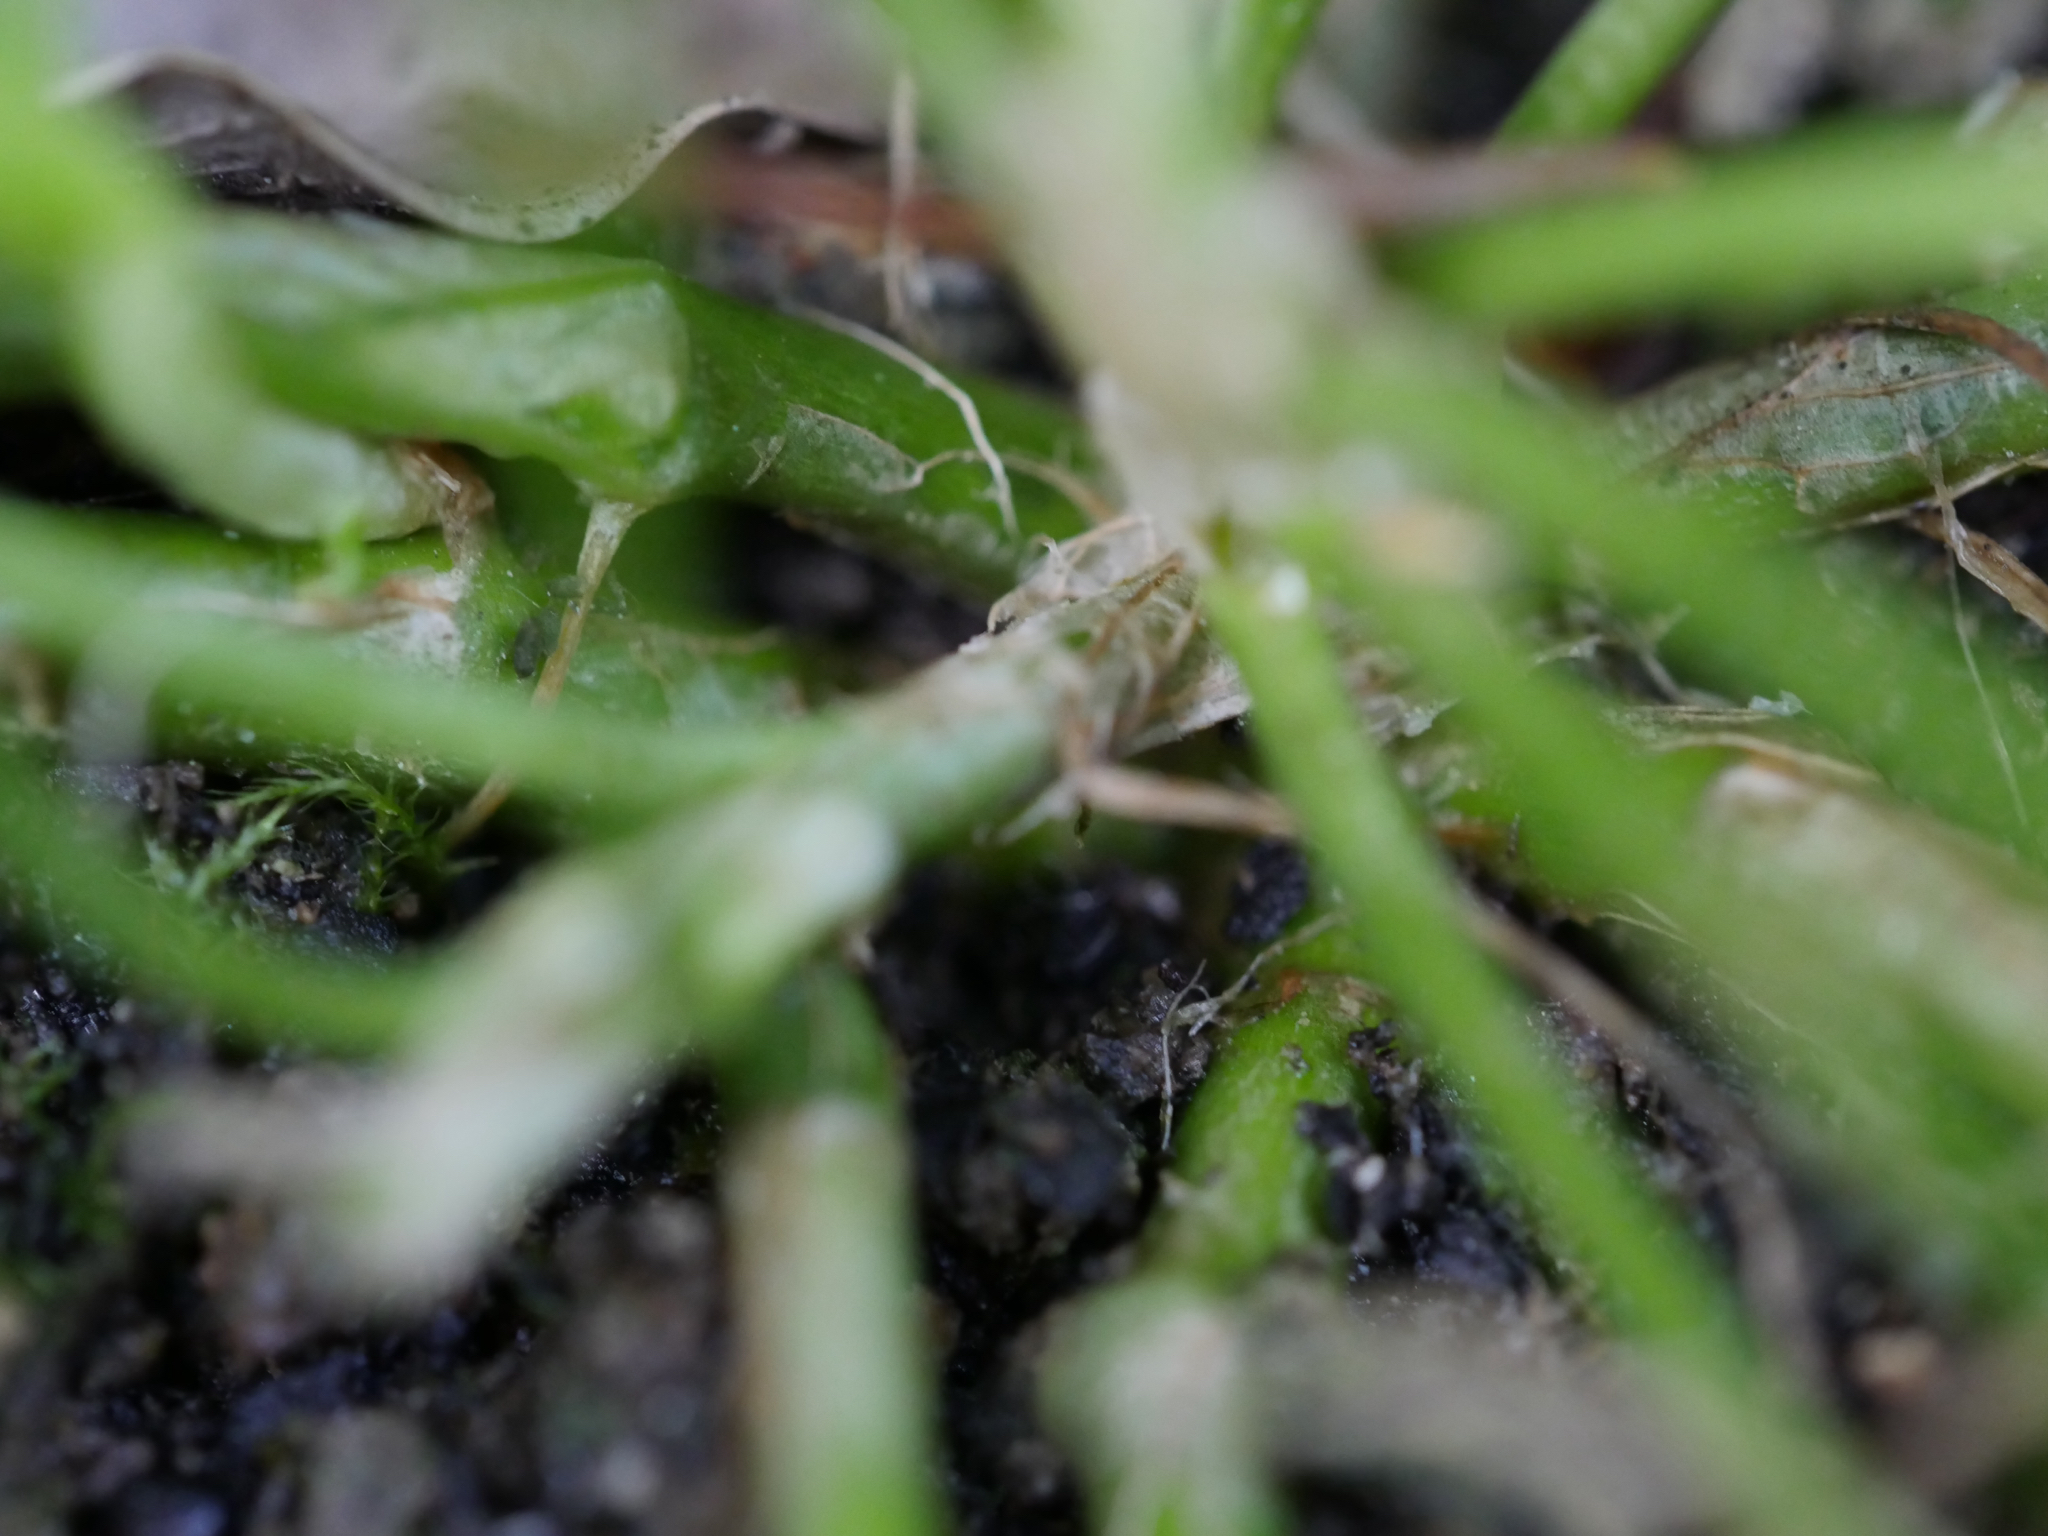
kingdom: Plantae
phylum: Tracheophyta
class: Magnoliopsida
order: Fabales
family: Fabaceae
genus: Trifolium
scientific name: Trifolium repens
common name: White clover
